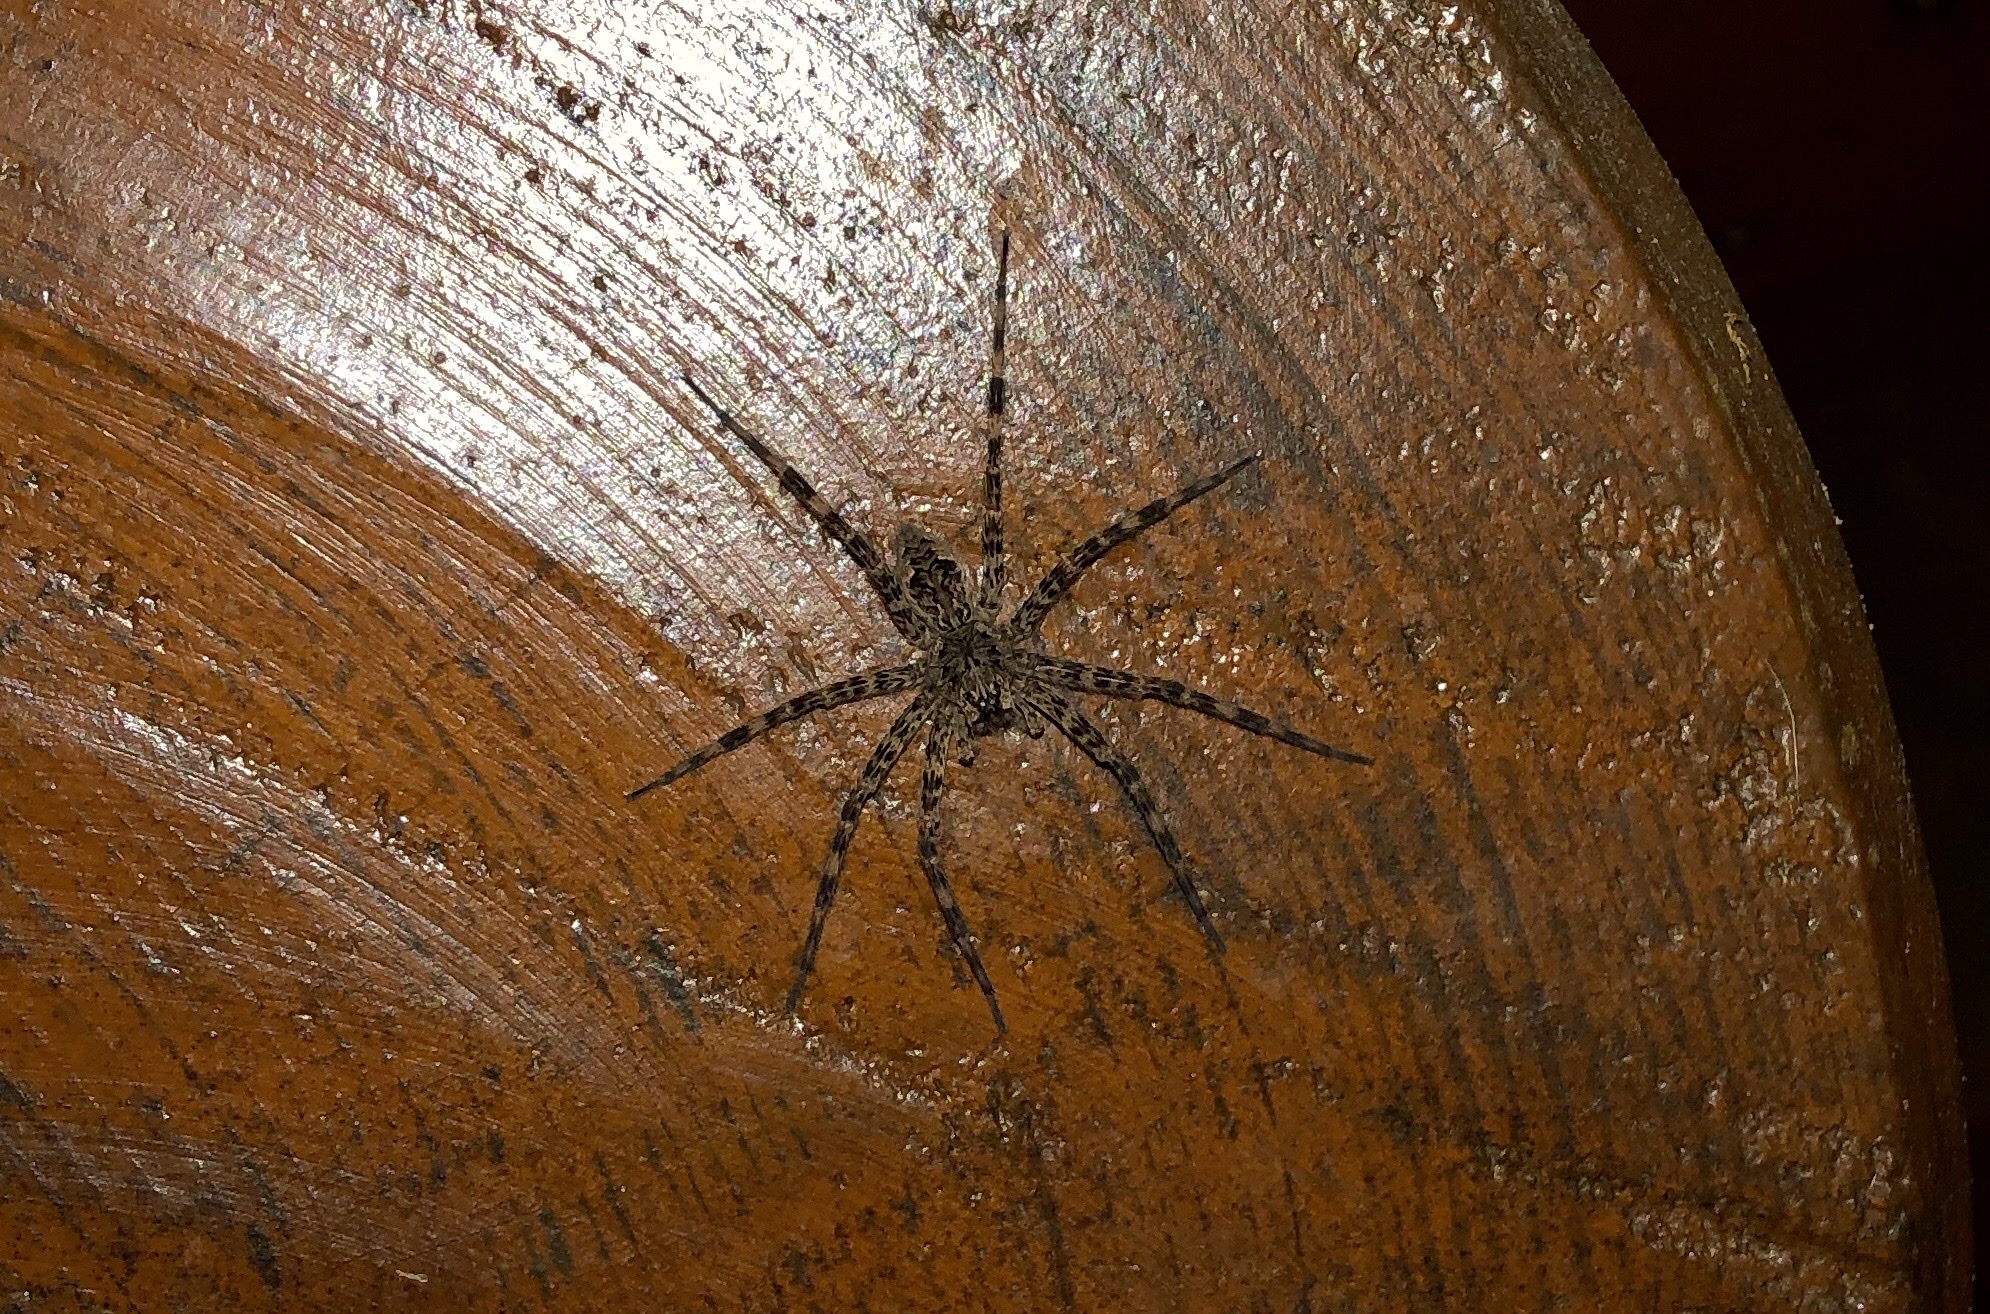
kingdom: Animalia
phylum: Arthropoda
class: Arachnida
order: Araneae
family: Pisauridae
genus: Dolomedes
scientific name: Dolomedes tenebrosus
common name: Dark fishing spider
